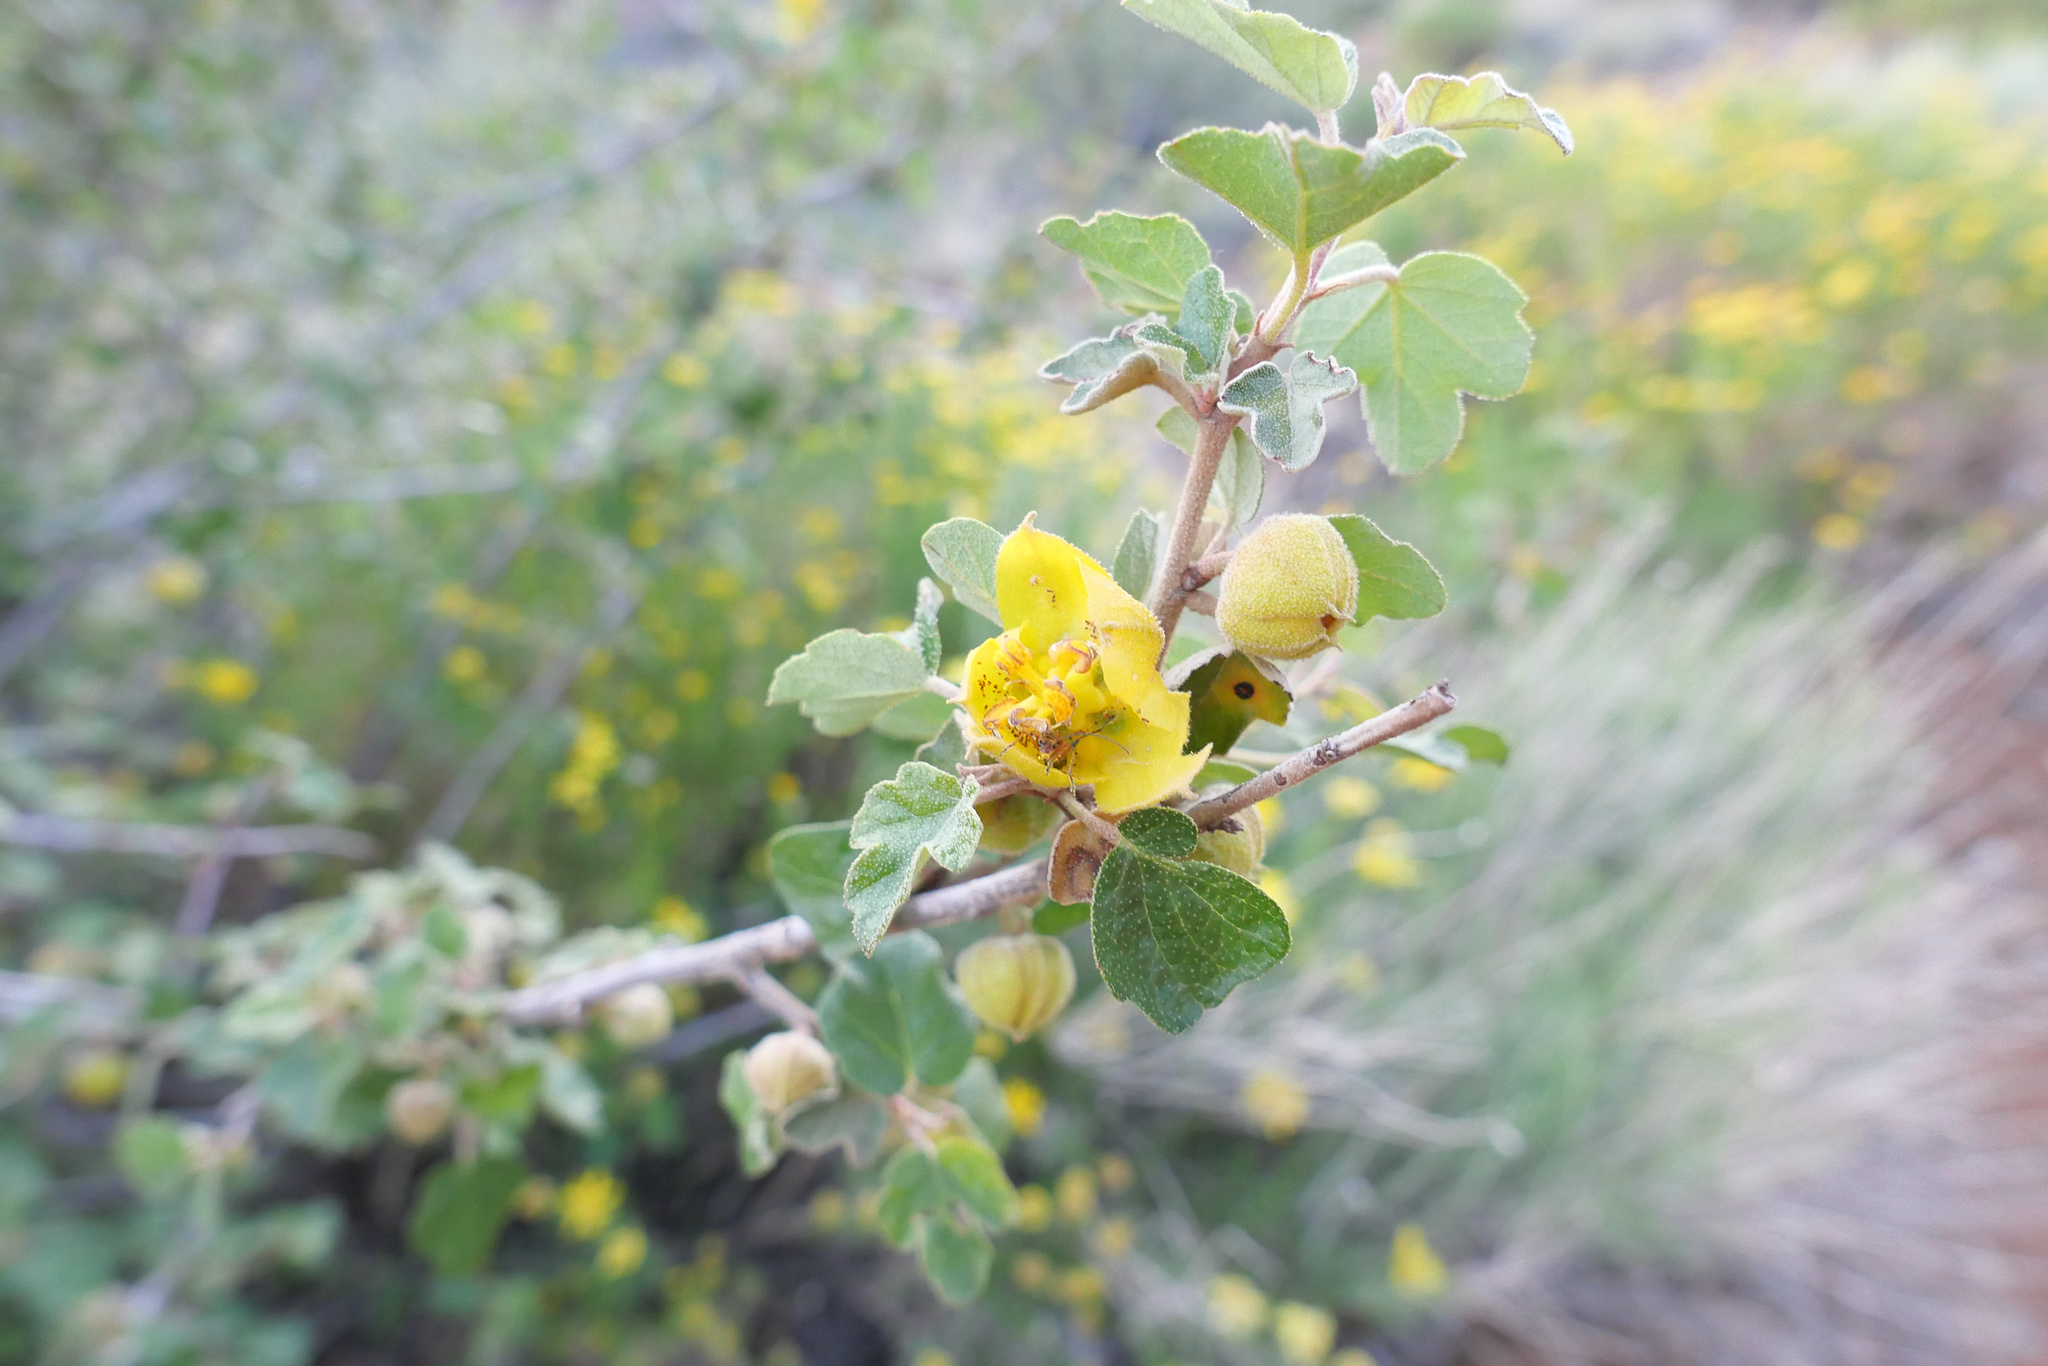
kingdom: Plantae
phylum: Tracheophyta
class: Magnoliopsida
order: Malvales
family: Malvaceae
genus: Fremontodendron
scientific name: Fremontodendron californicum
